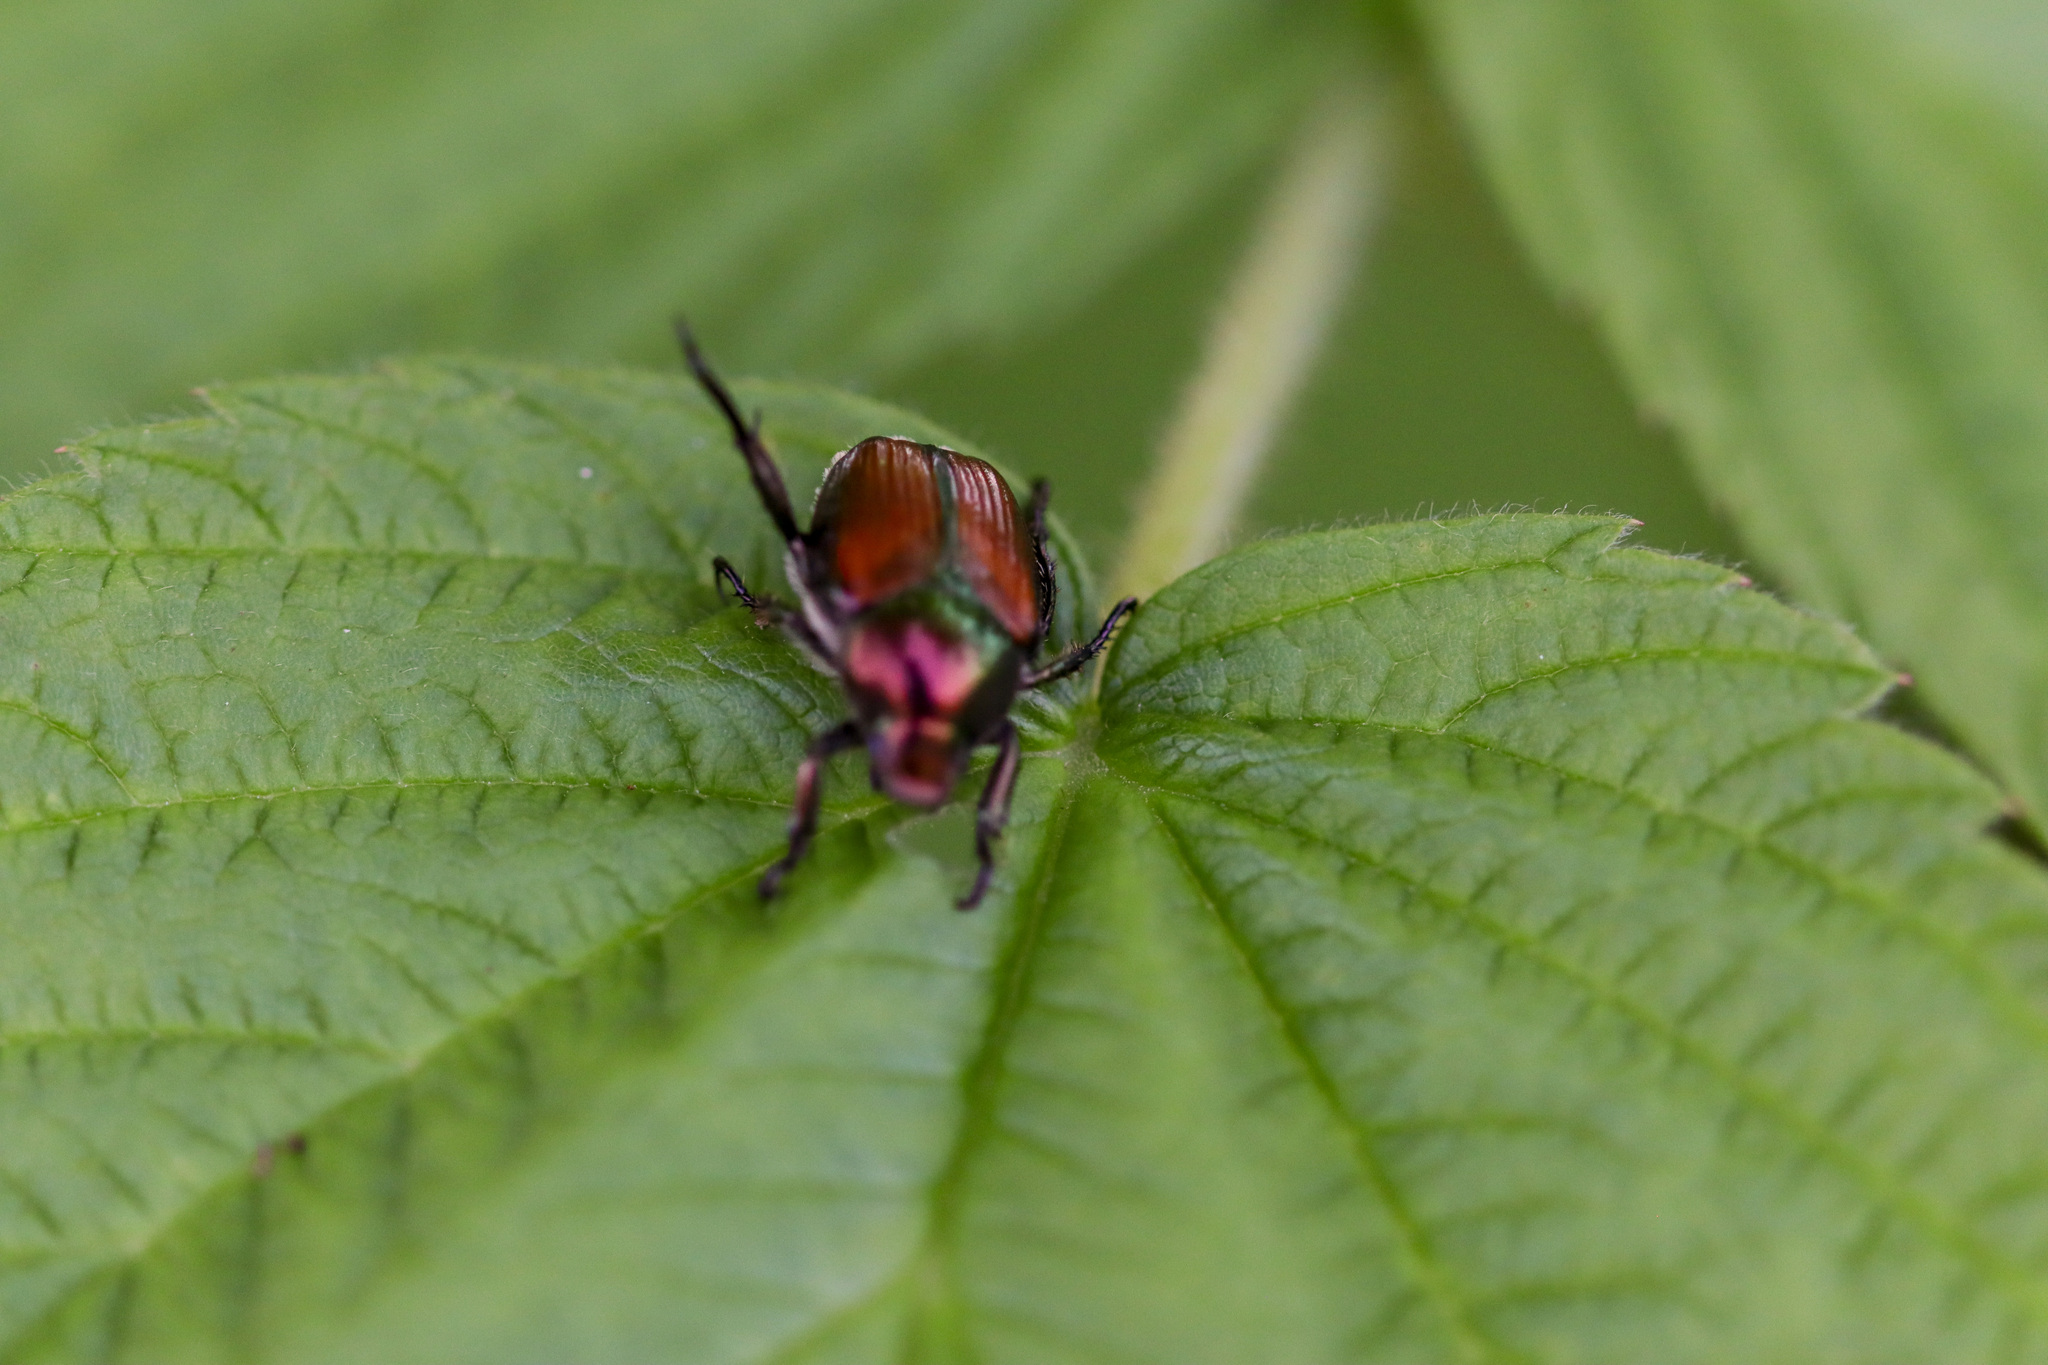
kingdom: Animalia
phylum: Arthropoda
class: Insecta
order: Coleoptera
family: Scarabaeidae
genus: Popillia
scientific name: Popillia japonica
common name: Japanese beetle
